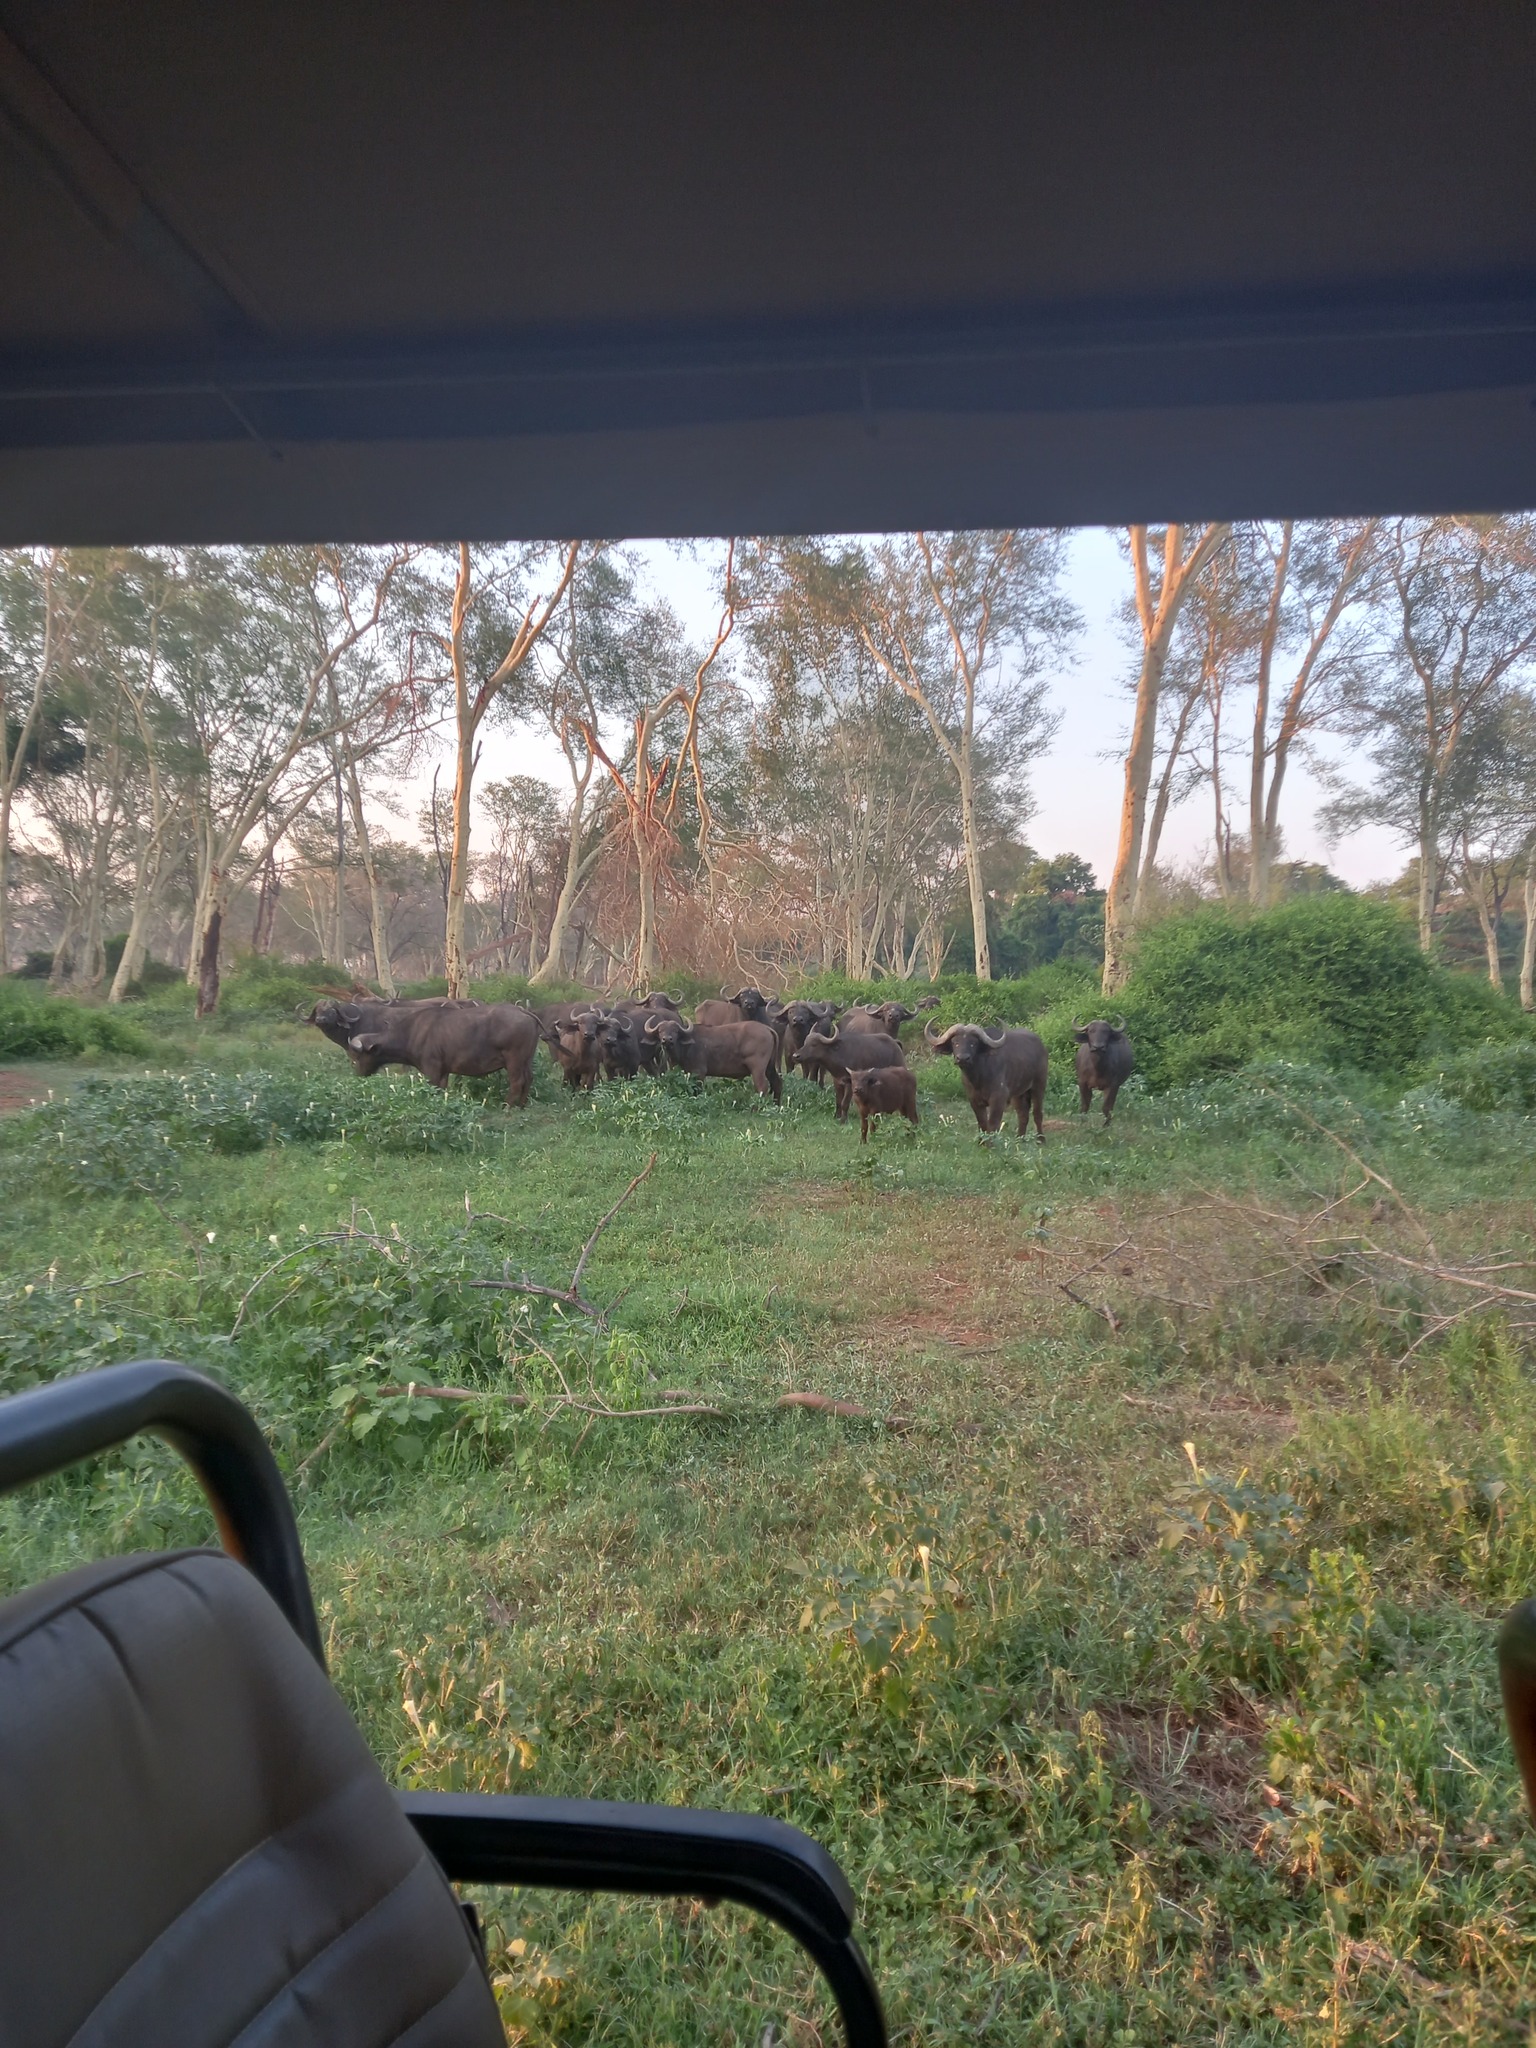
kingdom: Animalia
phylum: Chordata
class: Mammalia
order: Artiodactyla
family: Bovidae
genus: Syncerus
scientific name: Syncerus caffer
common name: African buffalo
